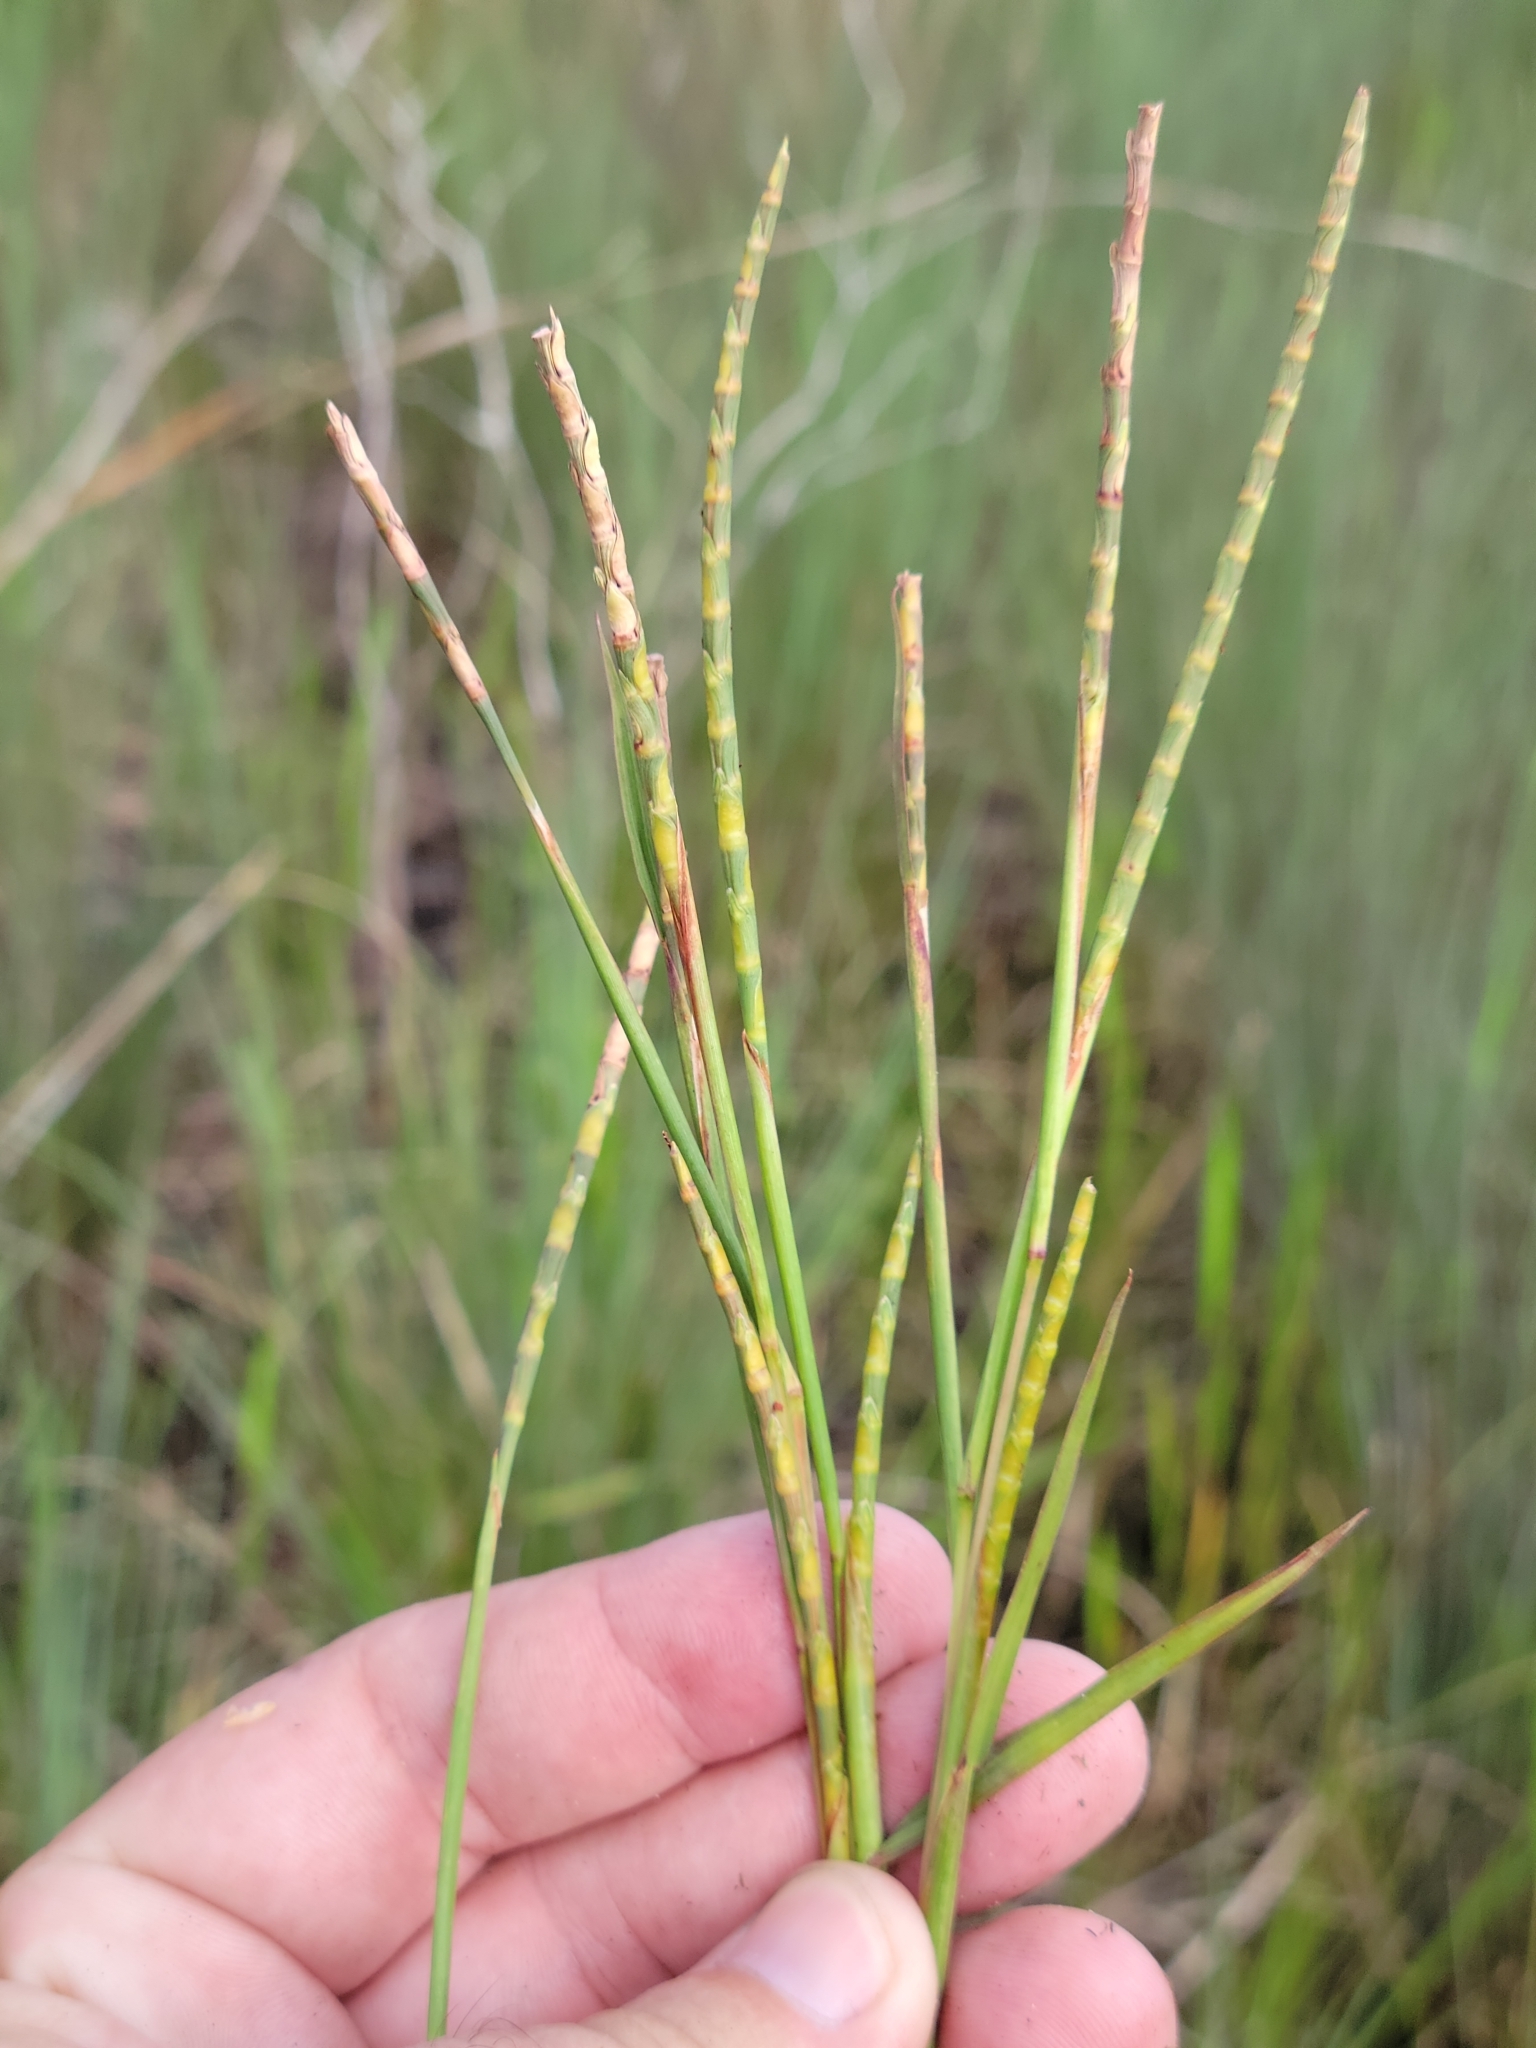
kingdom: Plantae
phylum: Tracheophyta
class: Liliopsida
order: Poales
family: Poaceae
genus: Rottboellia
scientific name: Rottboellia tuberculosa
